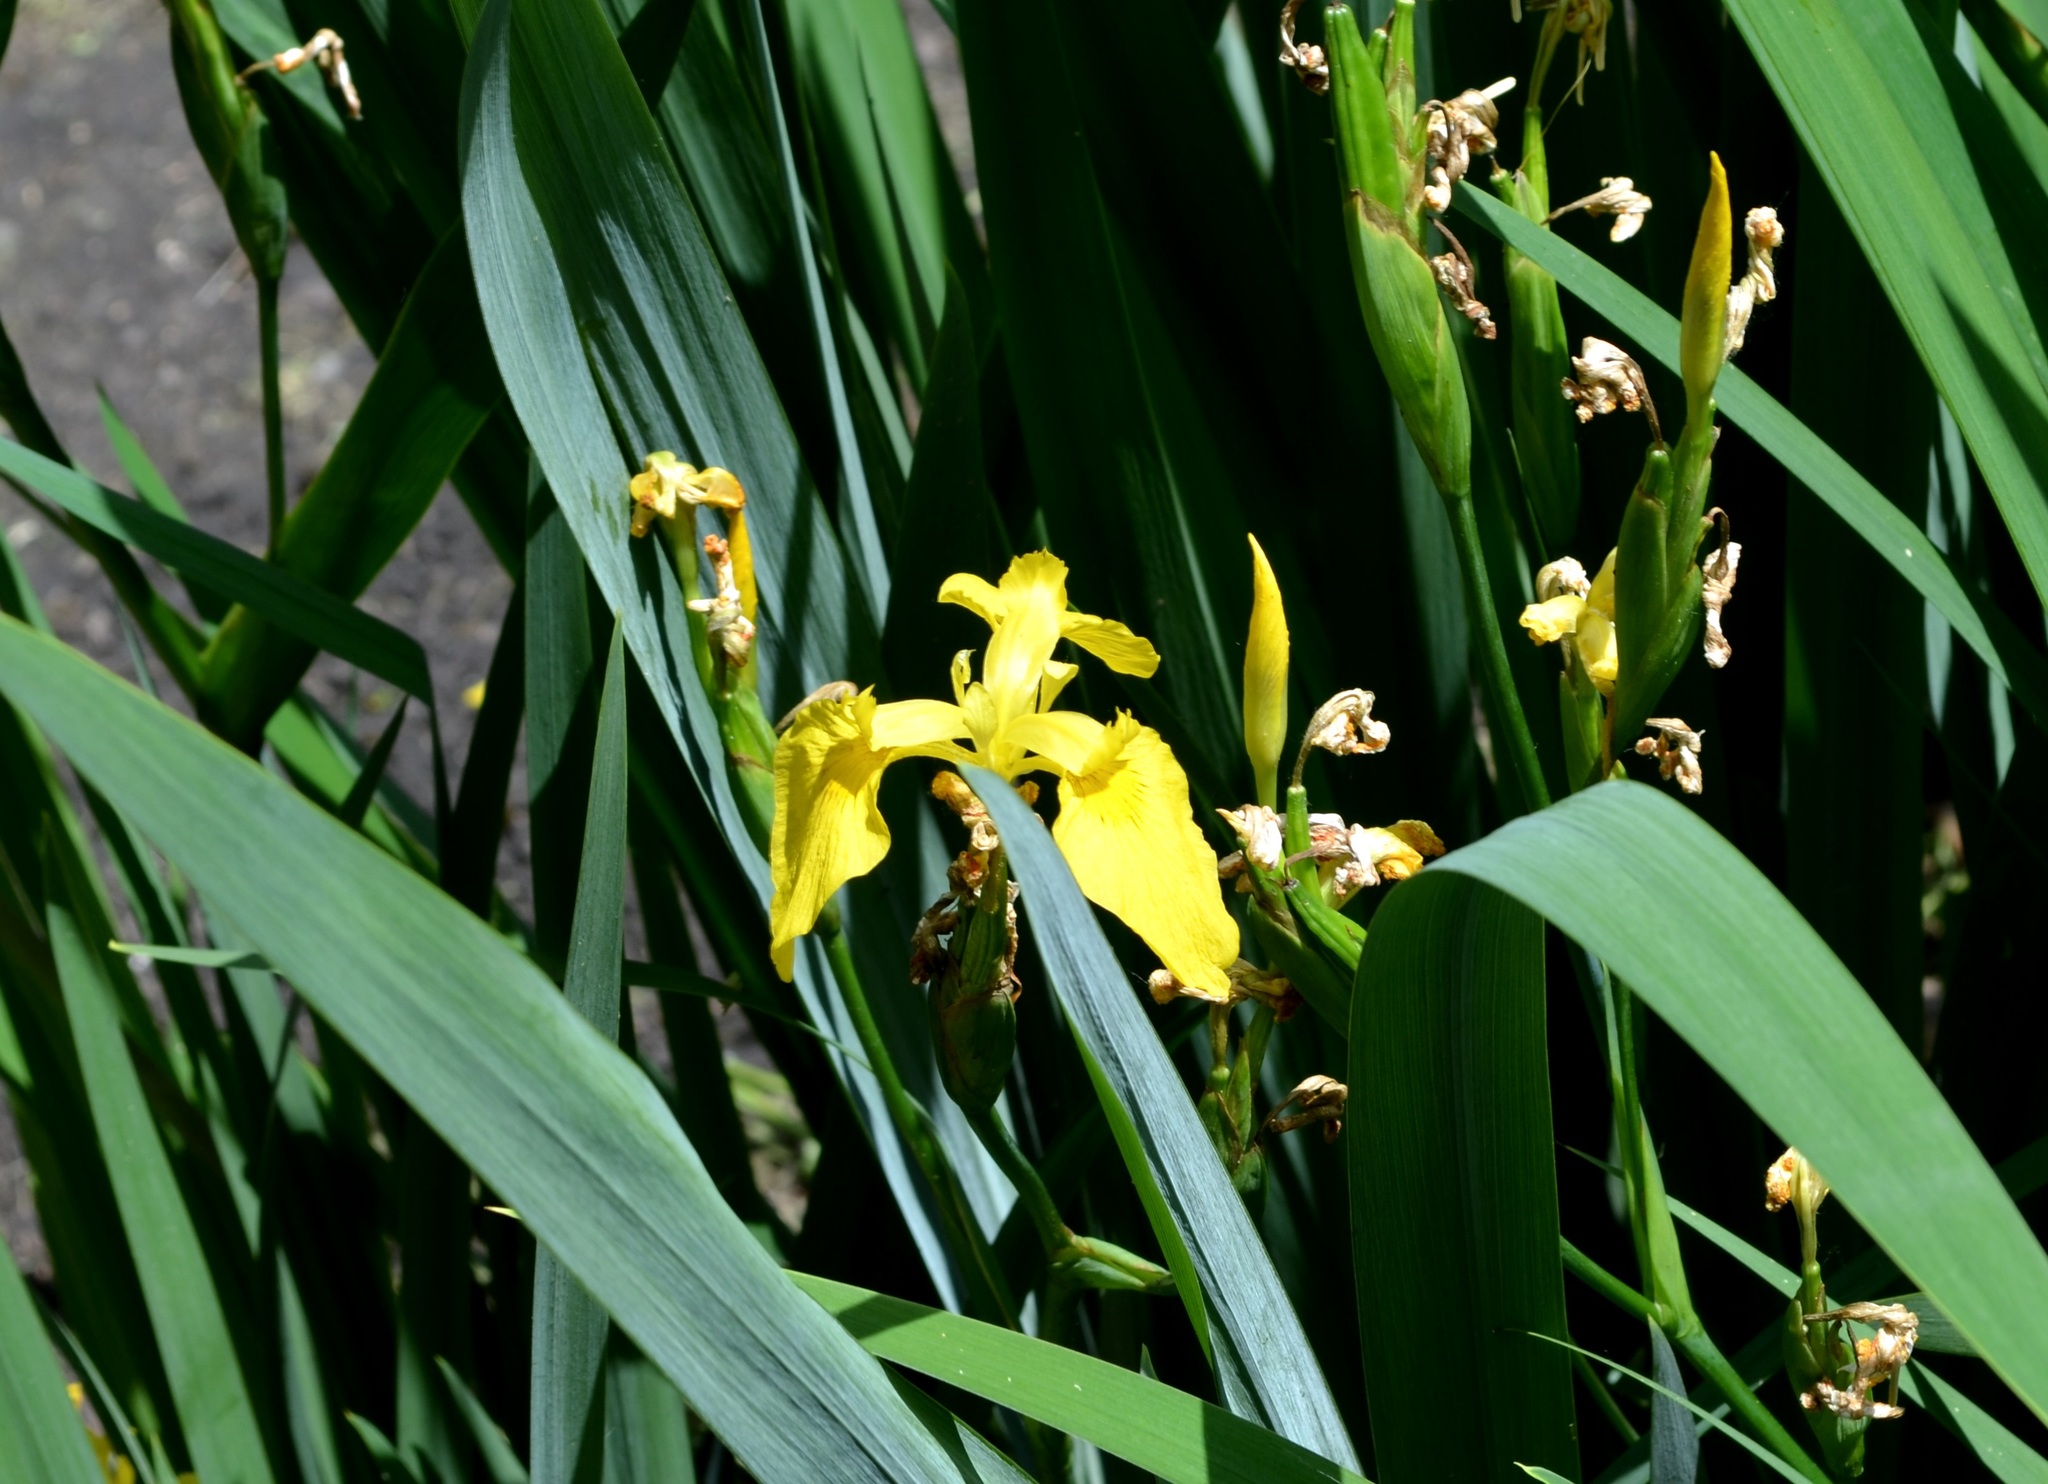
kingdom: Plantae
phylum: Tracheophyta
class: Liliopsida
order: Asparagales
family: Iridaceae
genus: Iris
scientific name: Iris pseudacorus
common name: Yellow flag
